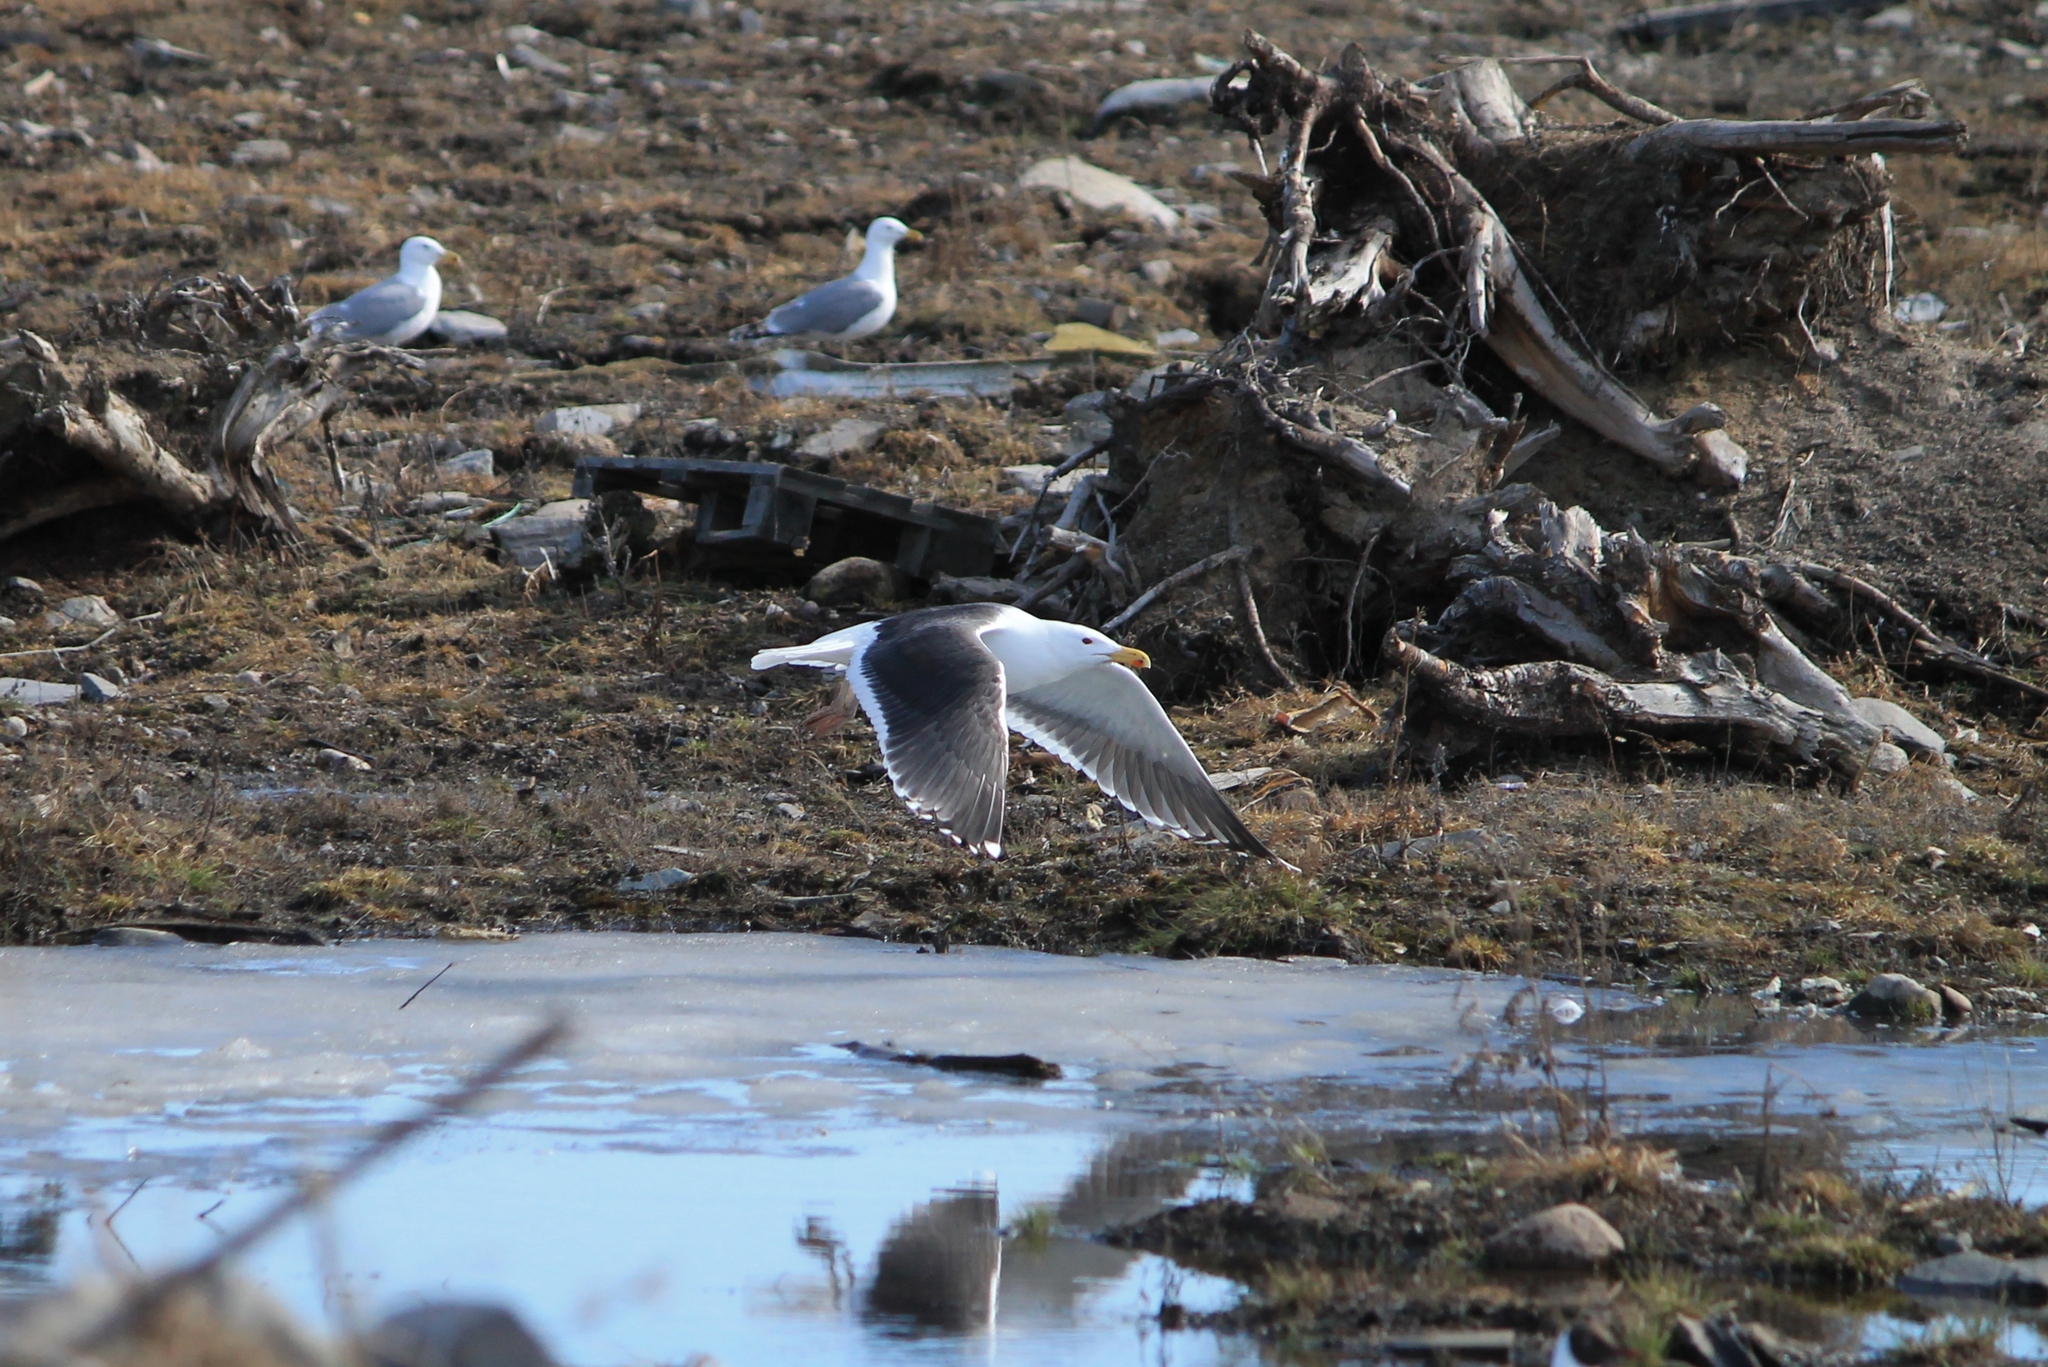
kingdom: Animalia
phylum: Chordata
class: Aves
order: Charadriiformes
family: Laridae
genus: Larus
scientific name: Larus marinus
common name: Great black-backed gull
